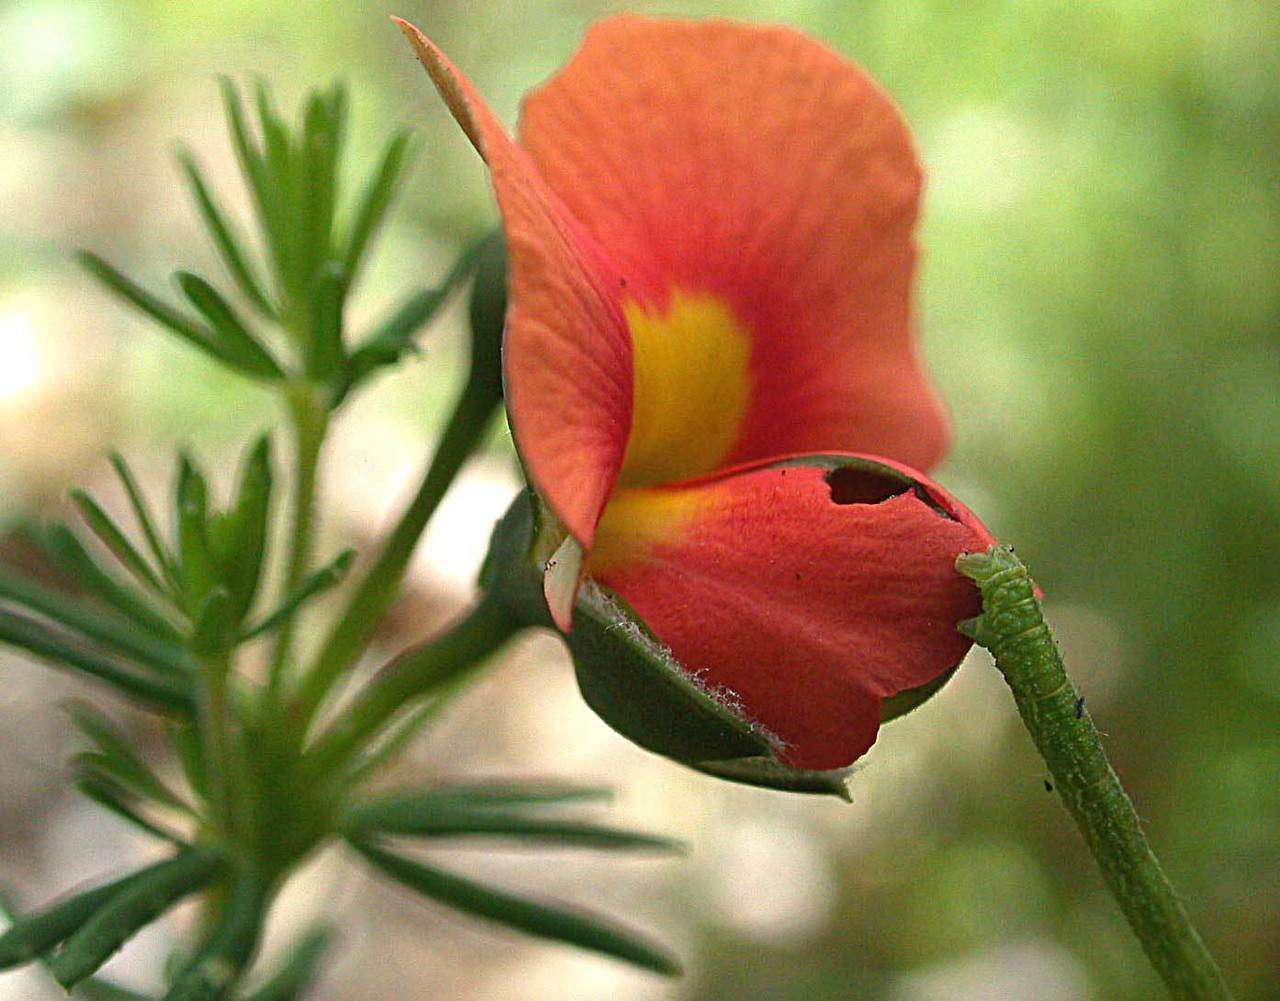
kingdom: Plantae
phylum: Tracheophyta
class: Magnoliopsida
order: Fabales
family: Fabaceae
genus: Gompholobium
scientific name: Gompholobium ecostatum
